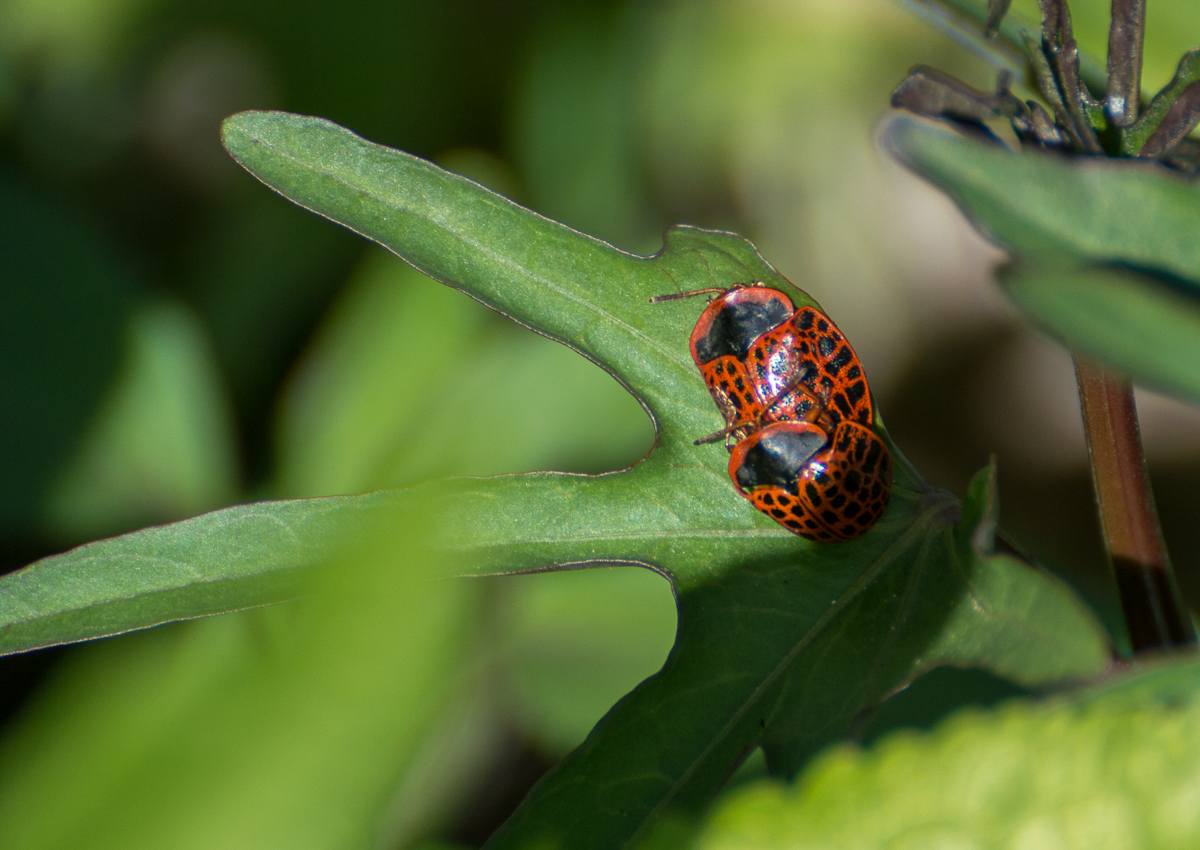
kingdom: Animalia
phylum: Arthropoda
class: Insecta
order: Coleoptera
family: Chrysomelidae
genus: Botanochara
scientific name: Botanochara macularia
